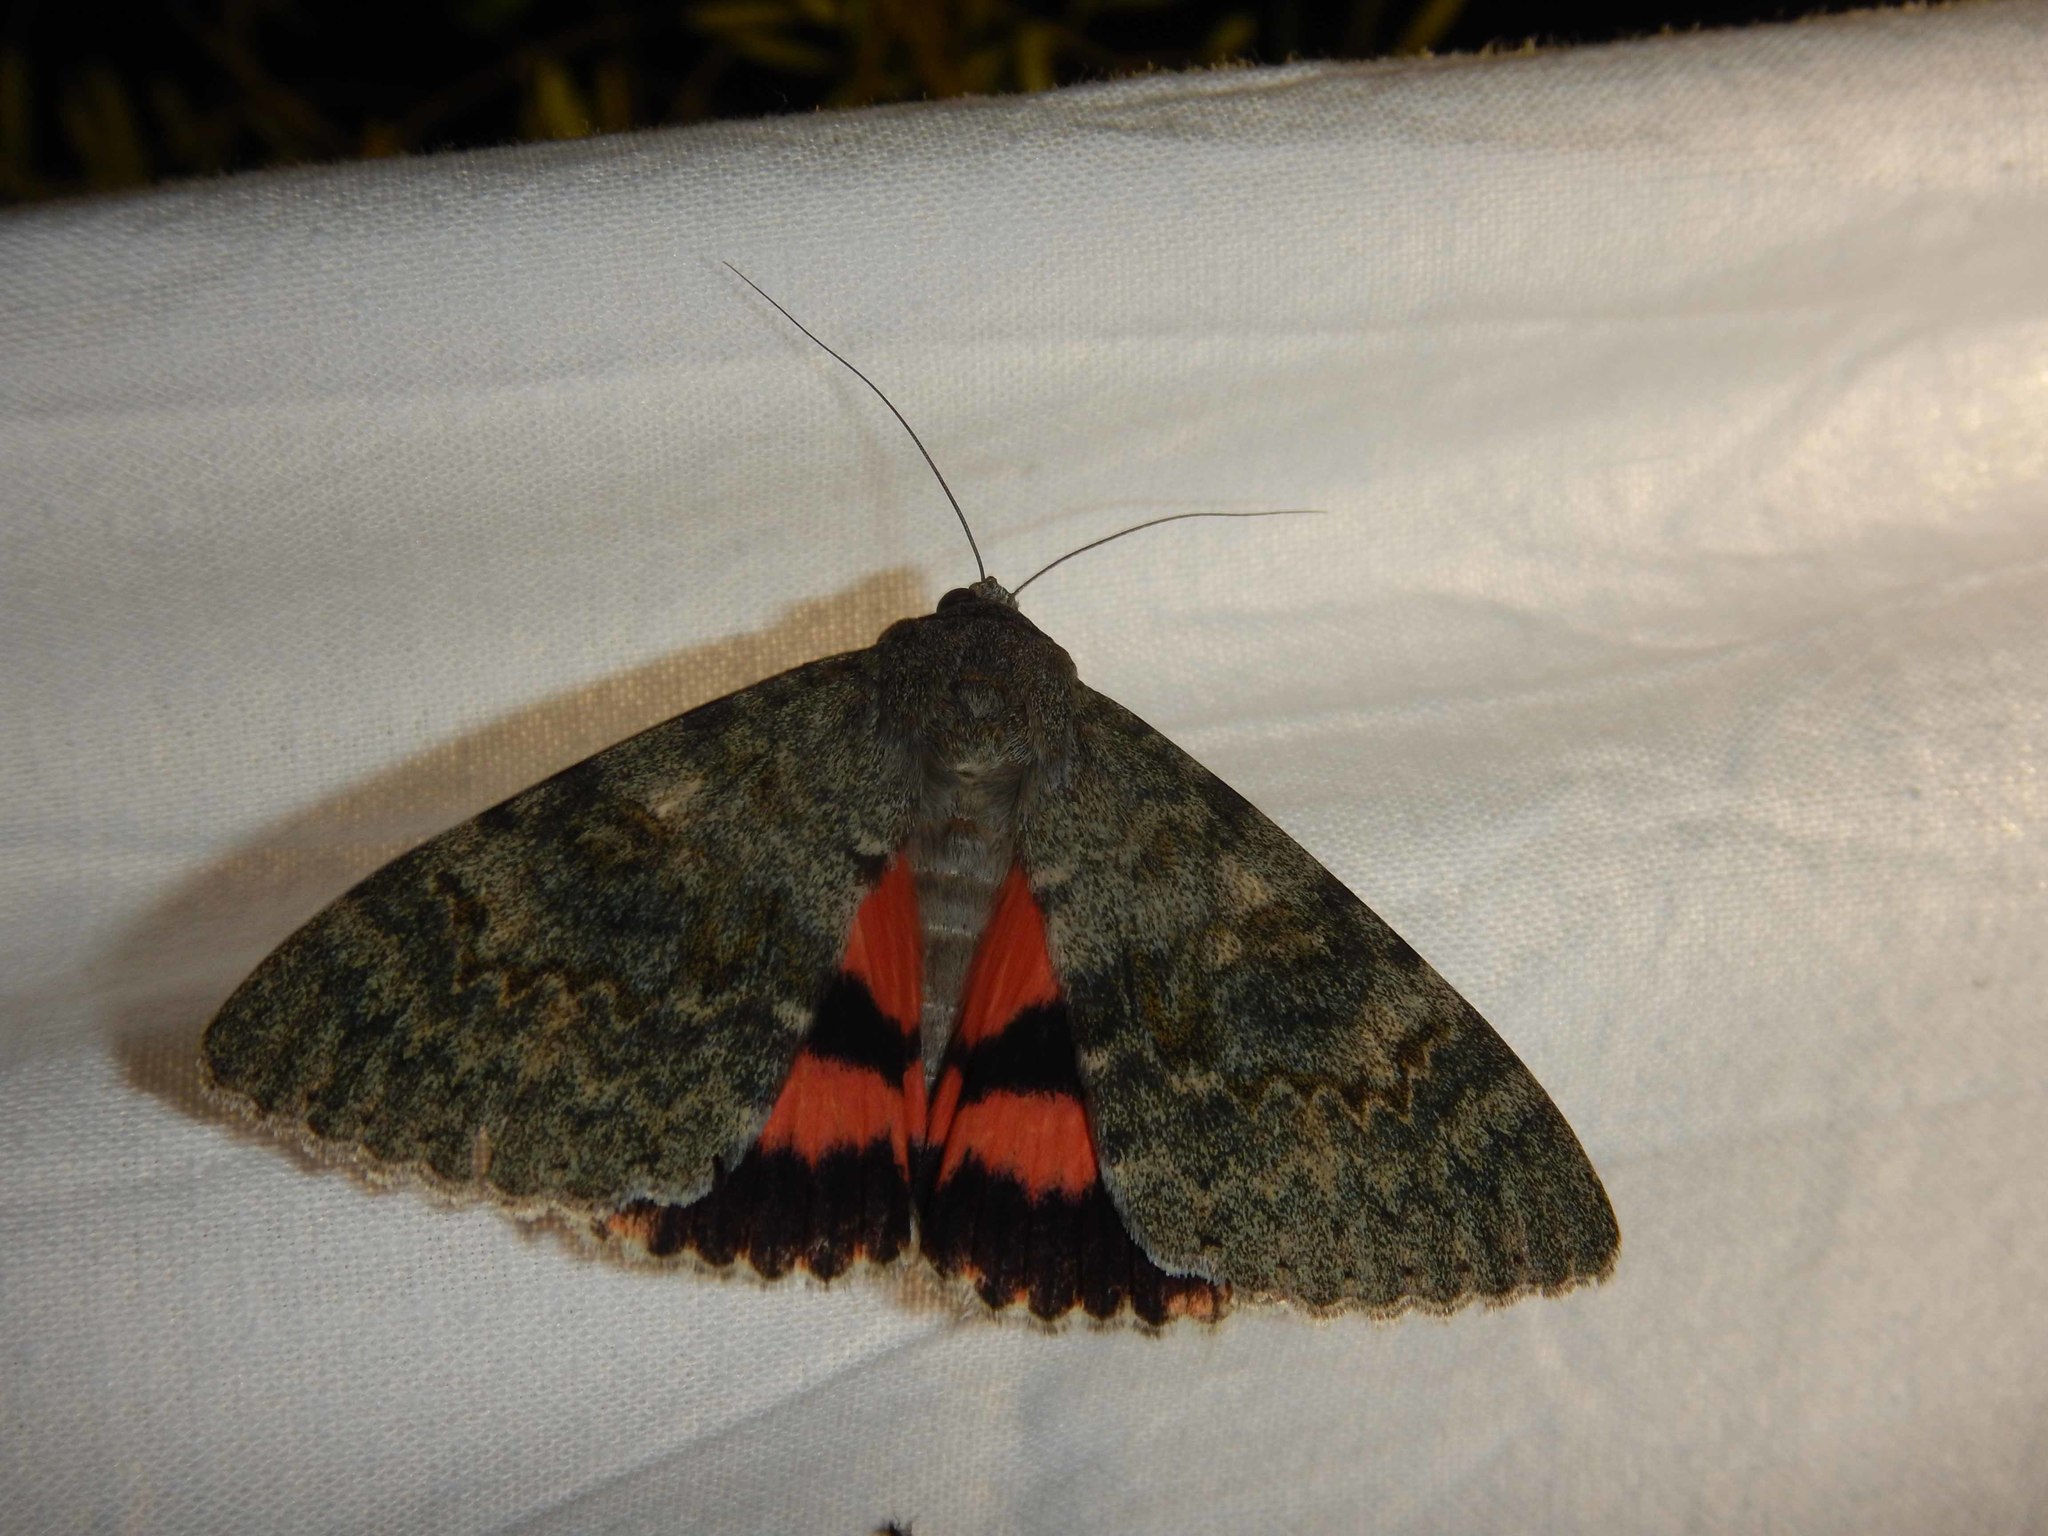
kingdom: Animalia
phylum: Arthropoda
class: Insecta
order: Lepidoptera
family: Erebidae
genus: Catocala
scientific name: Catocala elocata
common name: French red underwing
